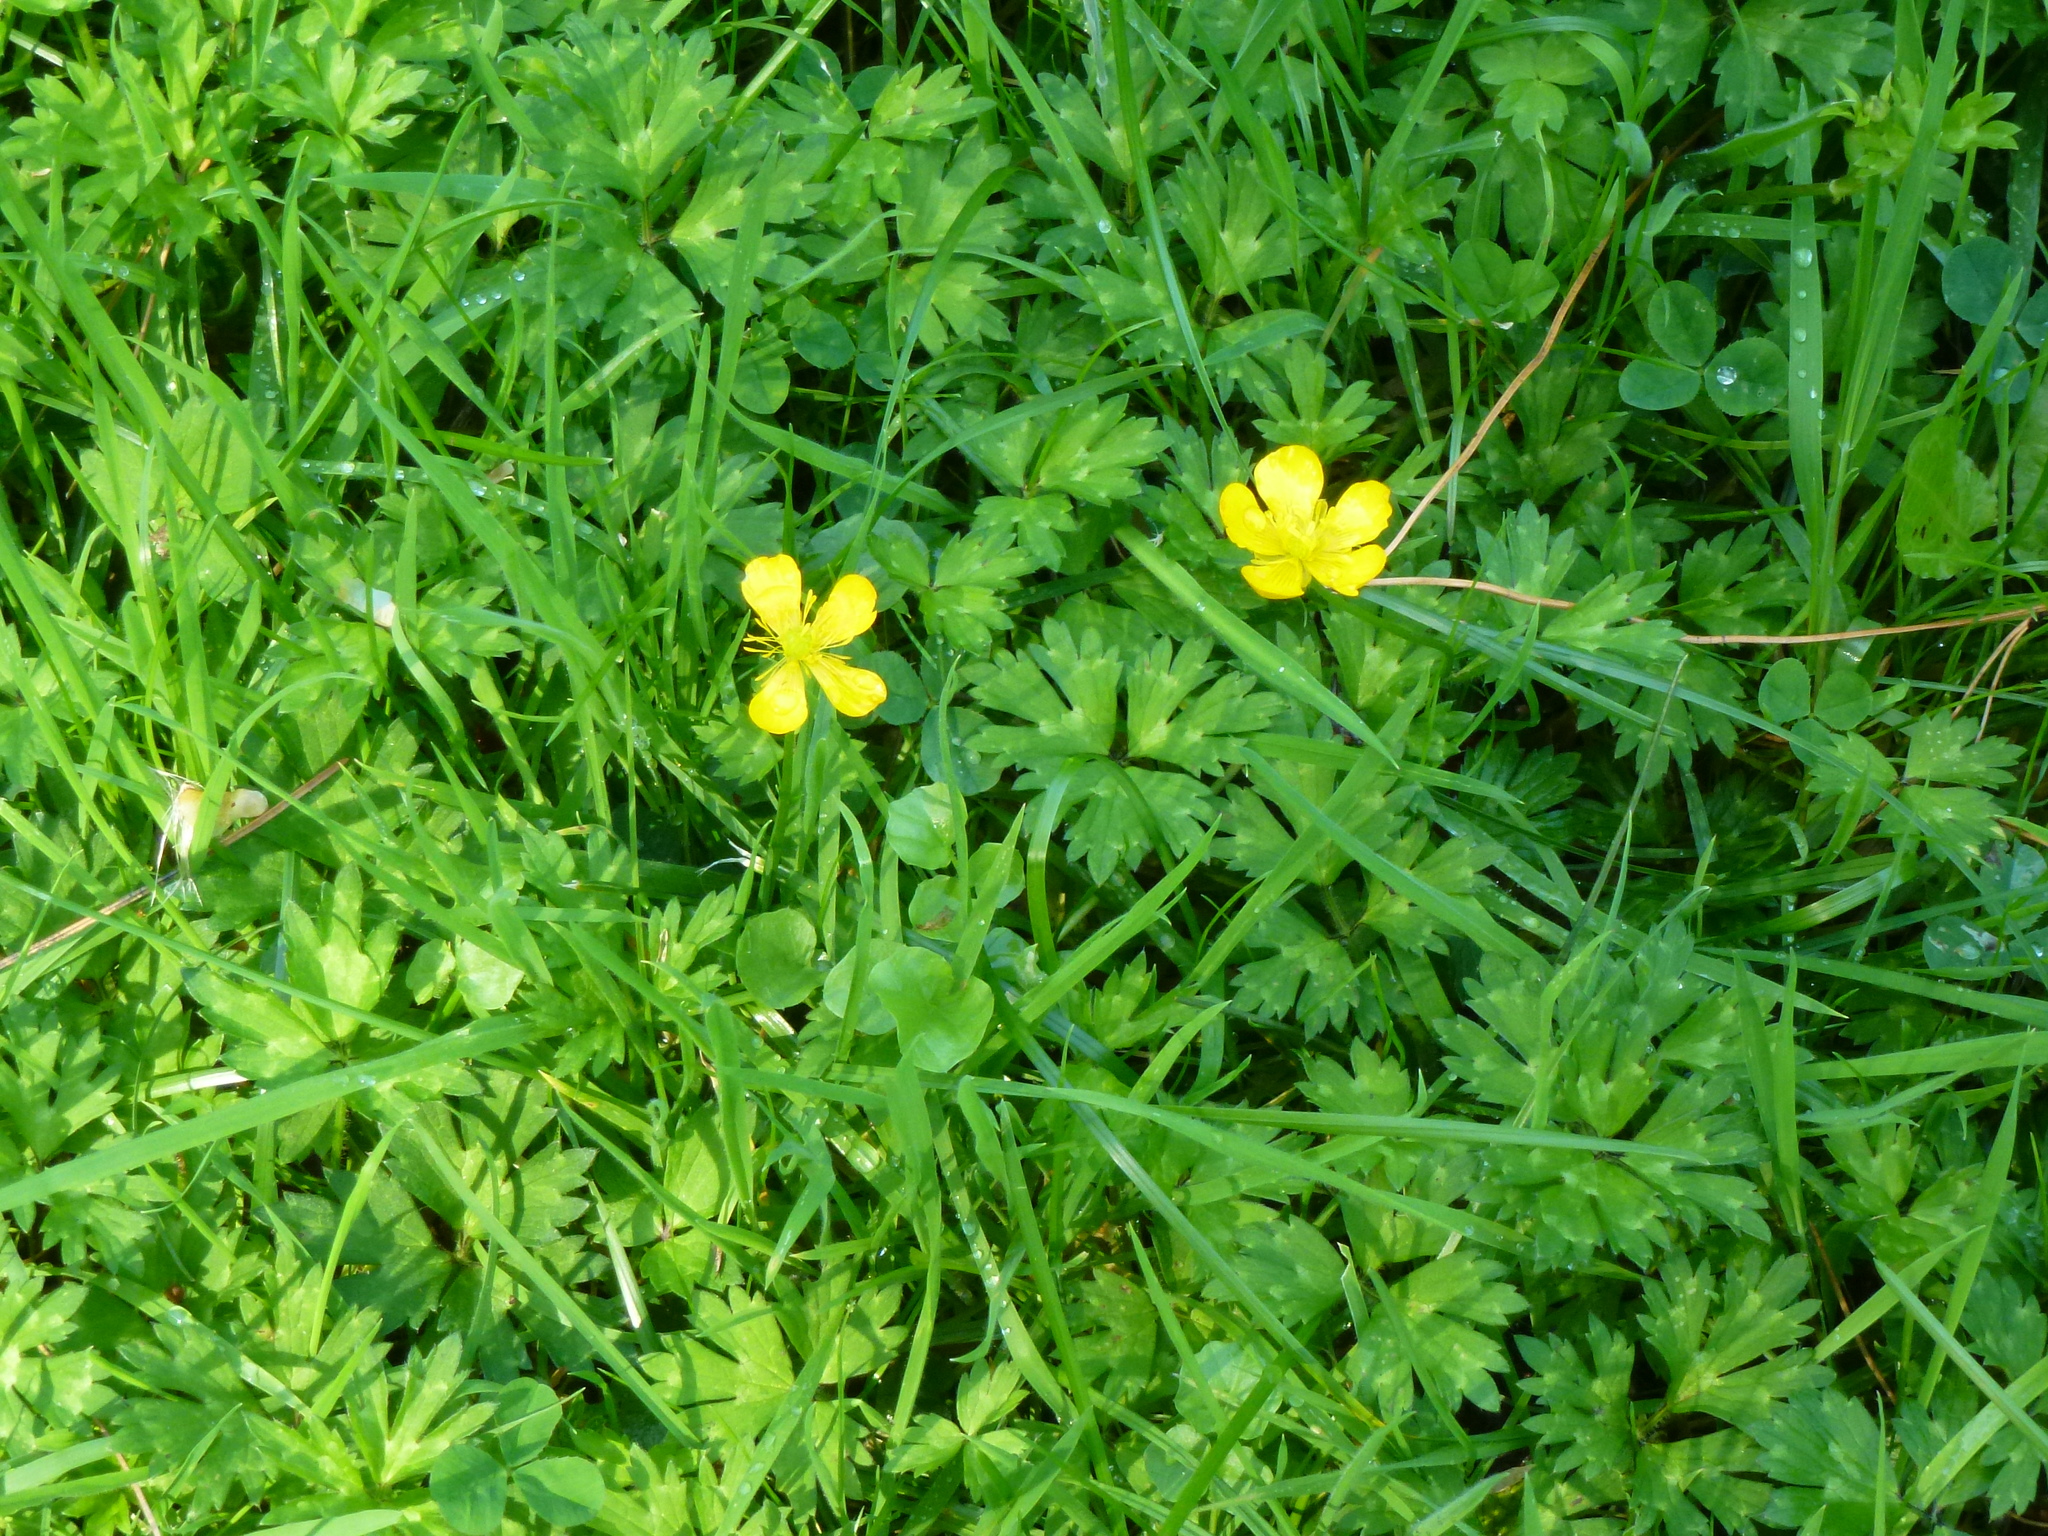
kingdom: Plantae
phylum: Tracheophyta
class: Magnoliopsida
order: Ranunculales
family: Ranunculaceae
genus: Ranunculus
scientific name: Ranunculus repens
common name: Creeping buttercup
